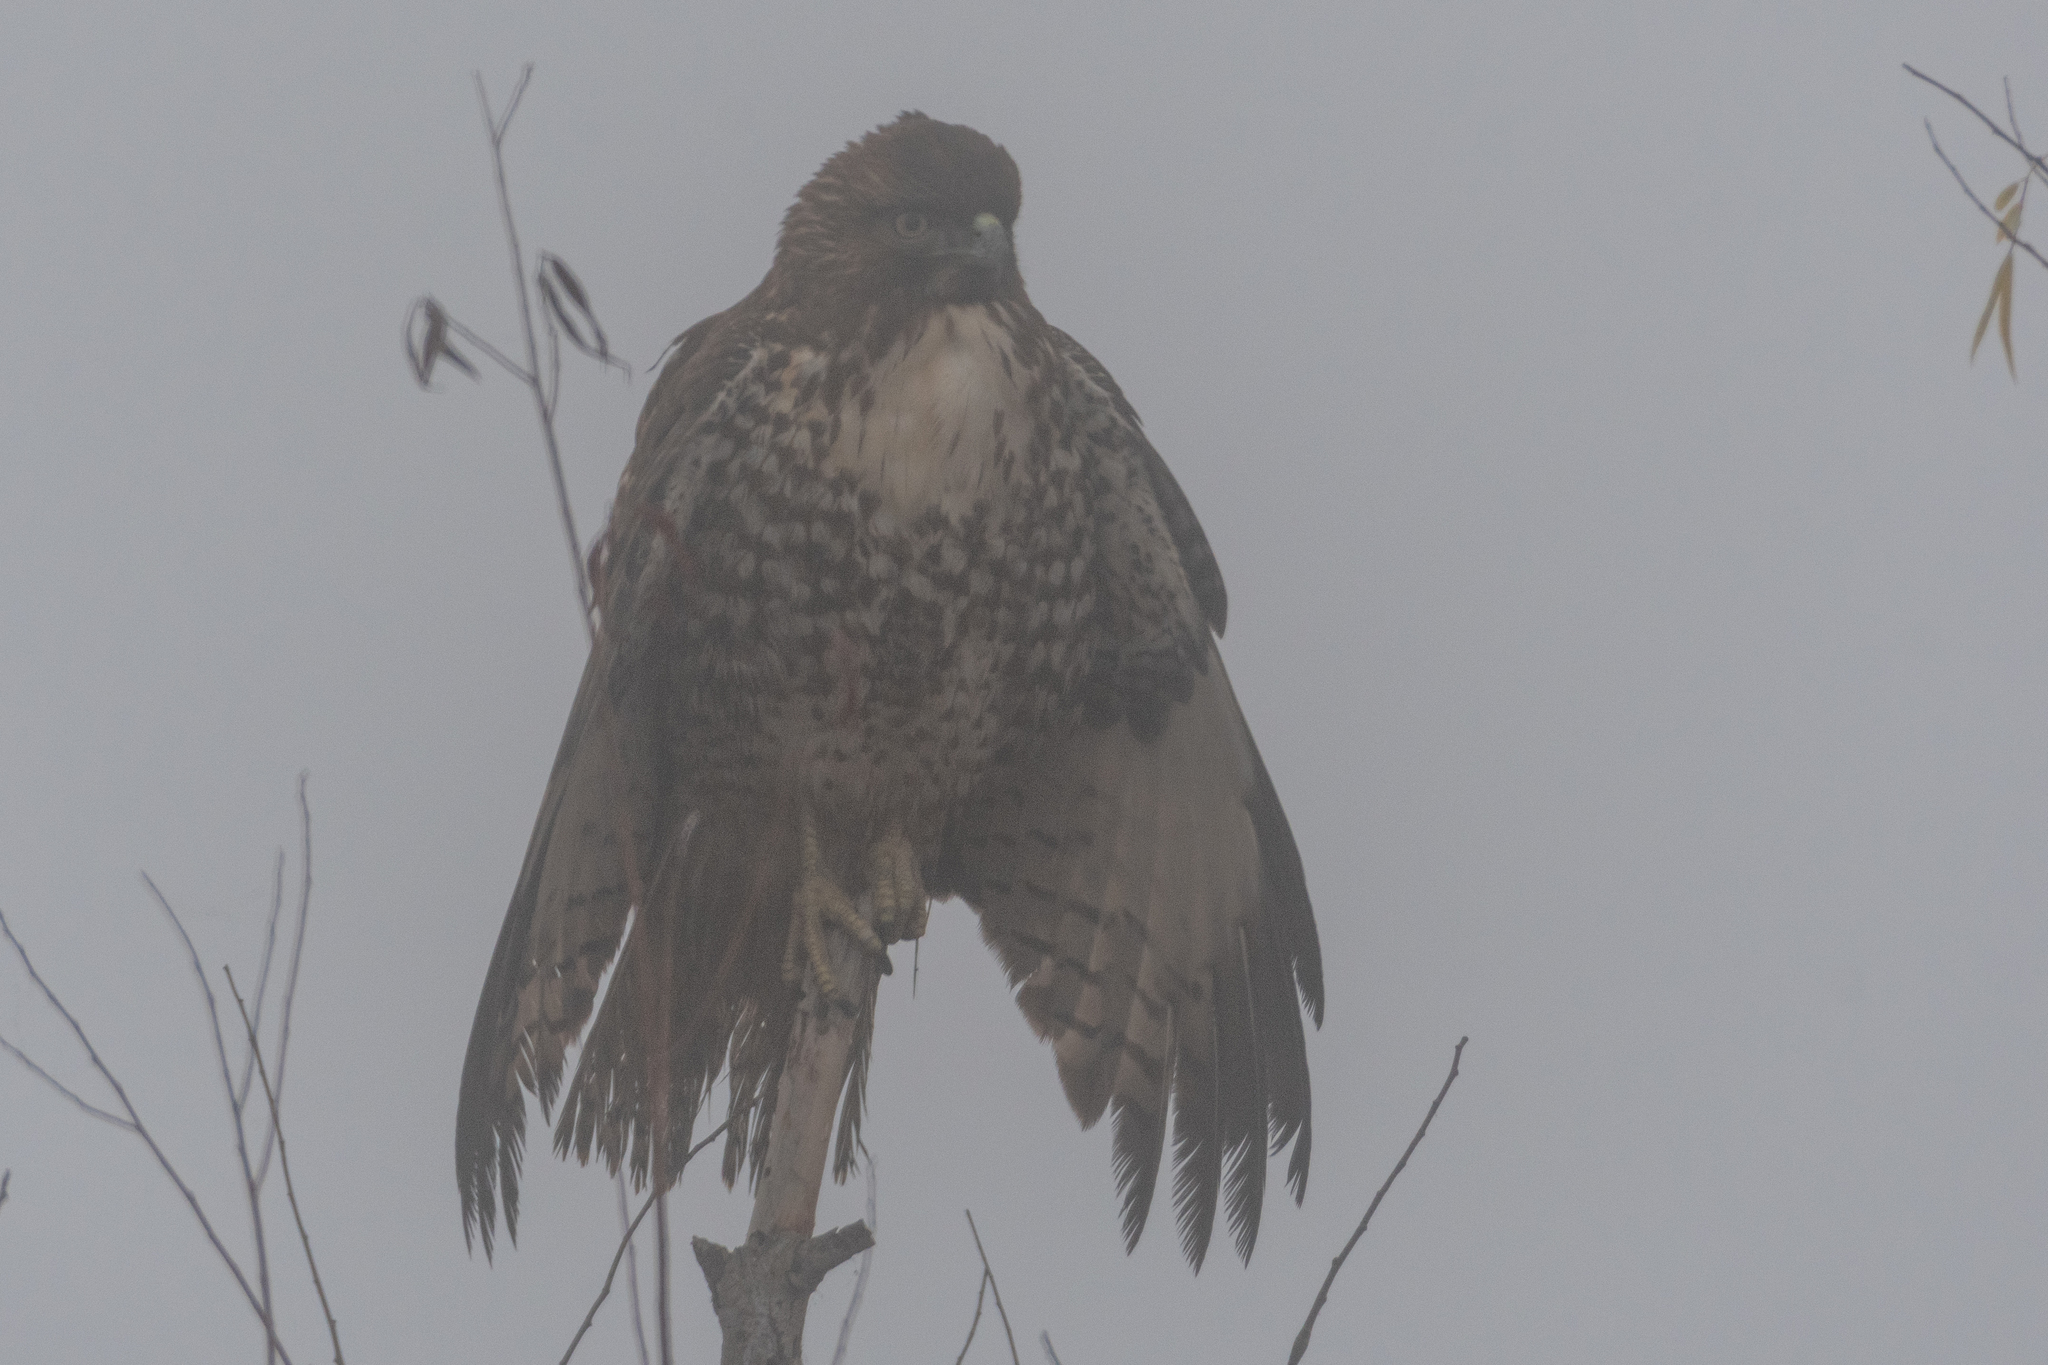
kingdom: Animalia
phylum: Chordata
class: Aves
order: Accipitriformes
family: Accipitridae
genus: Buteo
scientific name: Buteo jamaicensis
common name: Red-tailed hawk
